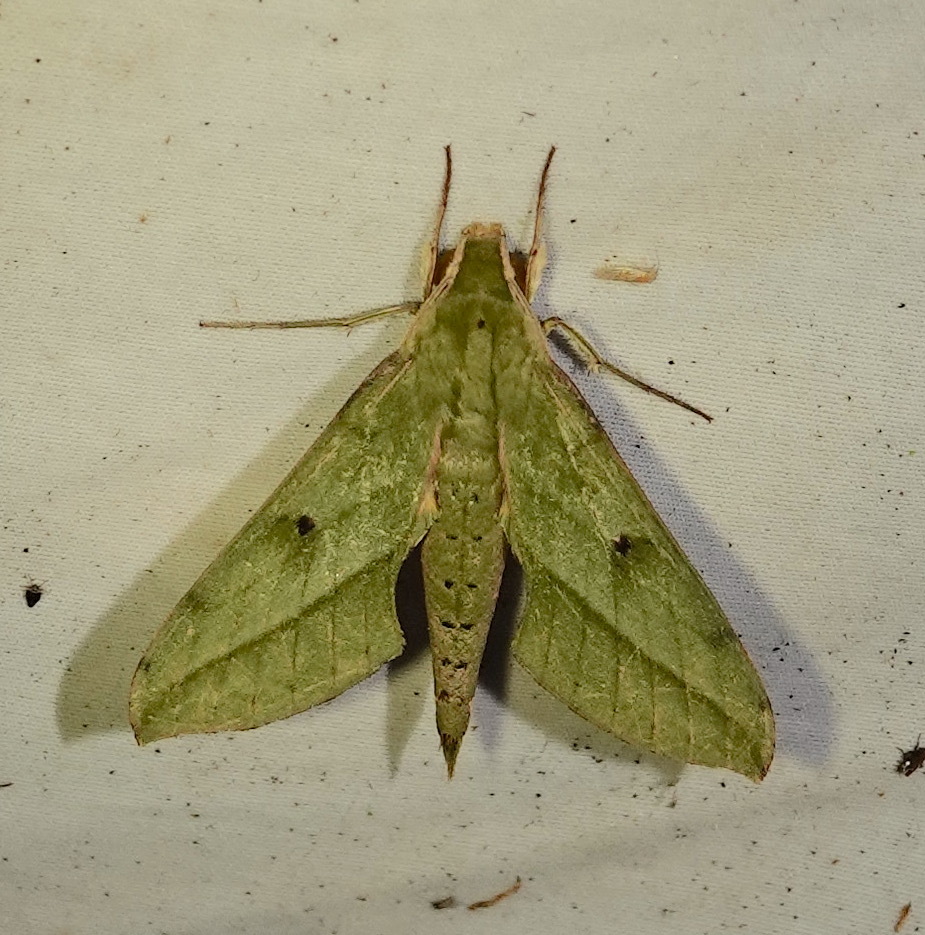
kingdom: Animalia
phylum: Arthropoda
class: Insecta
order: Lepidoptera
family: Sphingidae
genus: Xylophanes
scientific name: Xylophanes fassli
